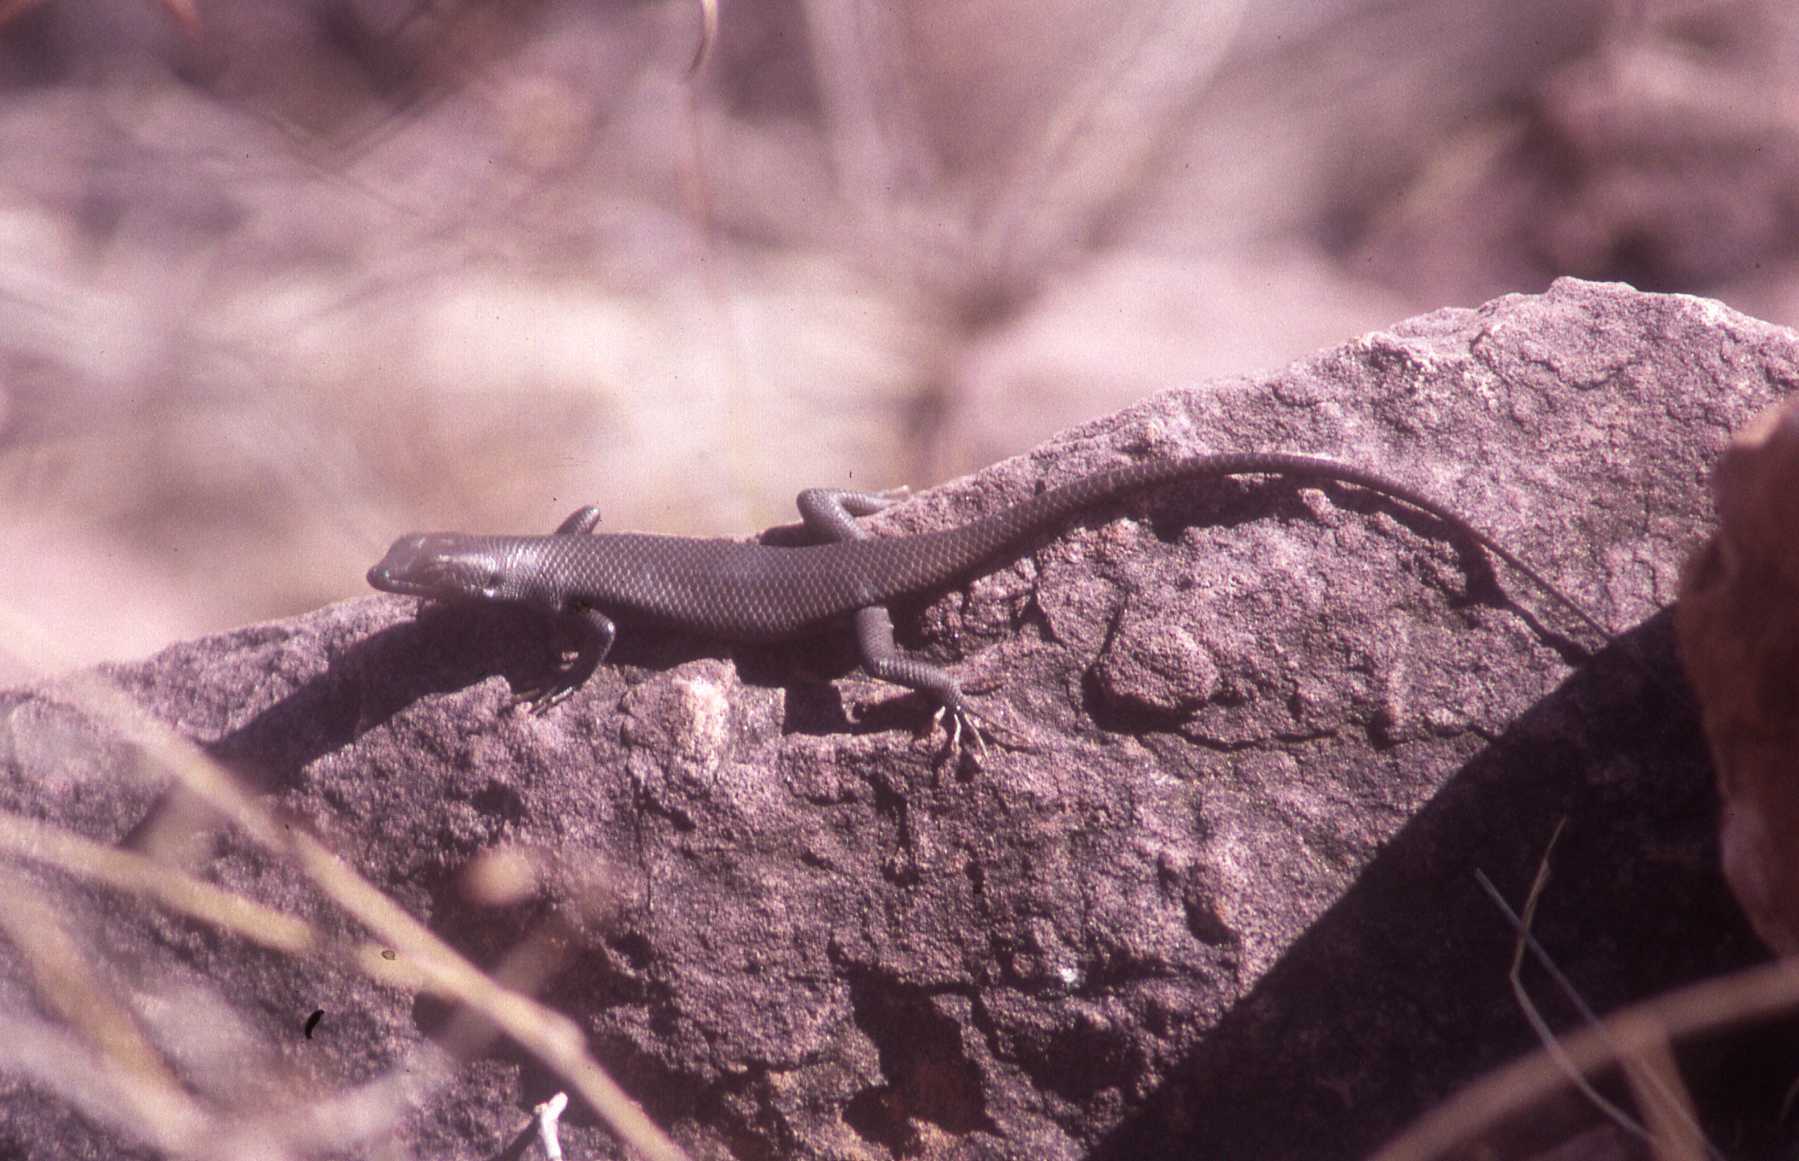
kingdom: Animalia
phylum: Chordata
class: Squamata
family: Scincidae
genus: Trachylepis
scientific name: Trachylepis sulcata
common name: Western rock skink
